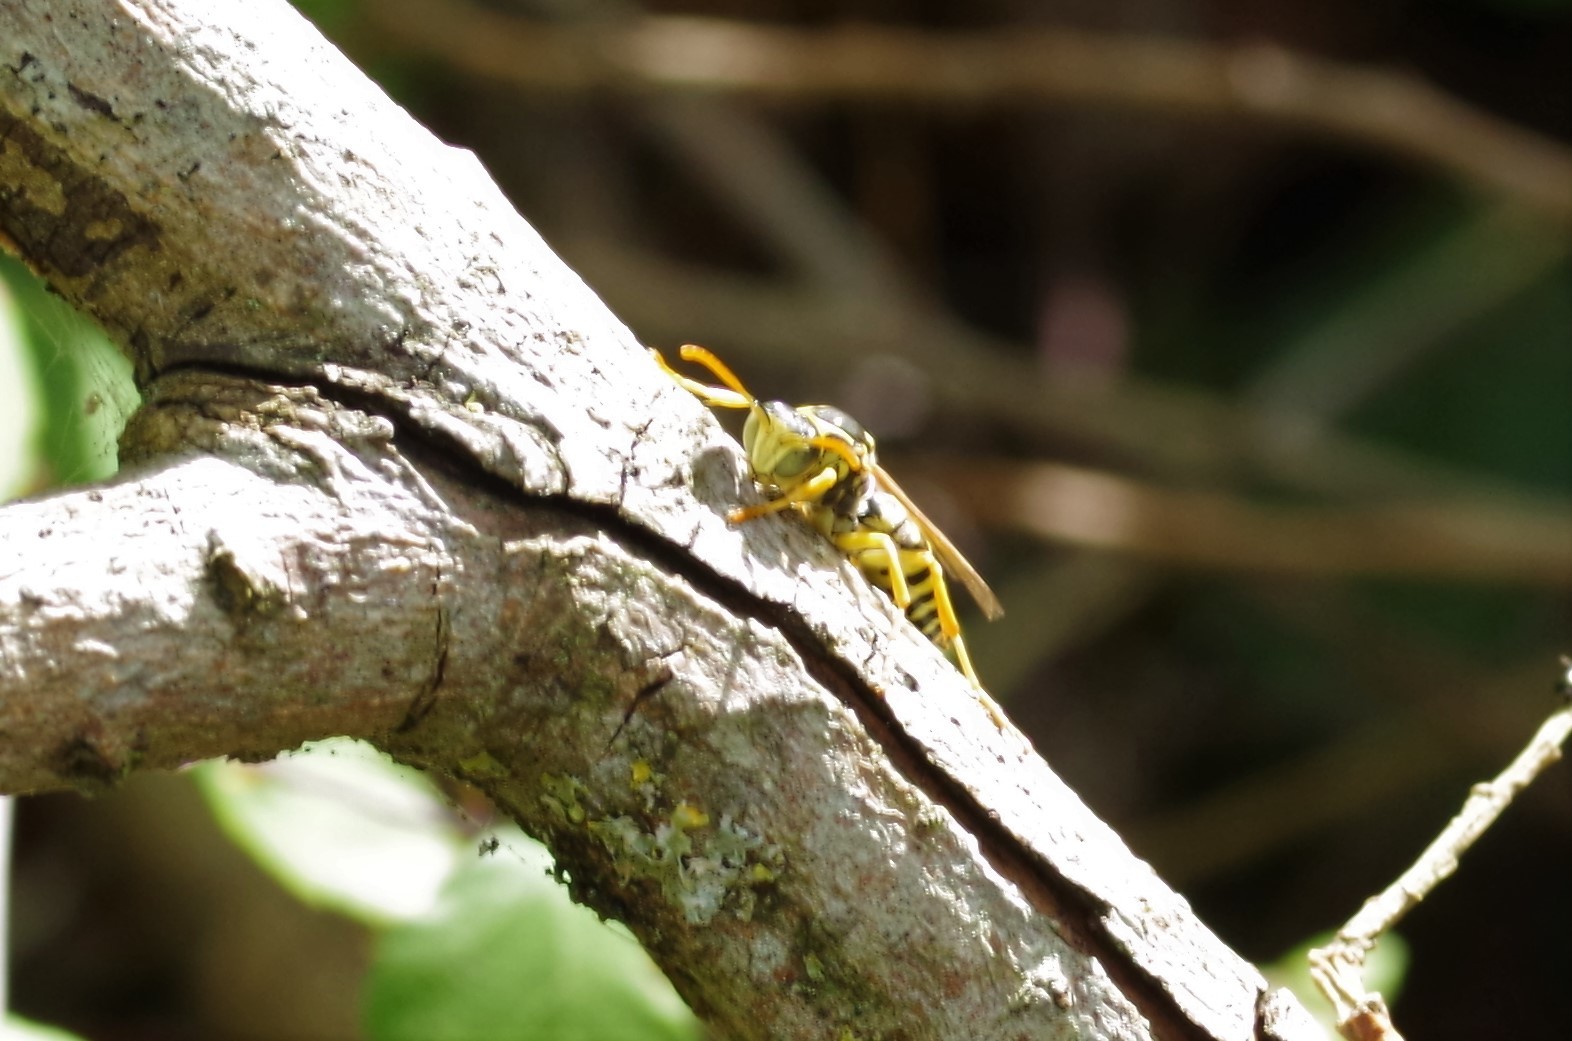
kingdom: Animalia
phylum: Arthropoda
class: Insecta
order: Hymenoptera
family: Eumenidae
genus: Polistes
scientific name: Polistes nimpha
